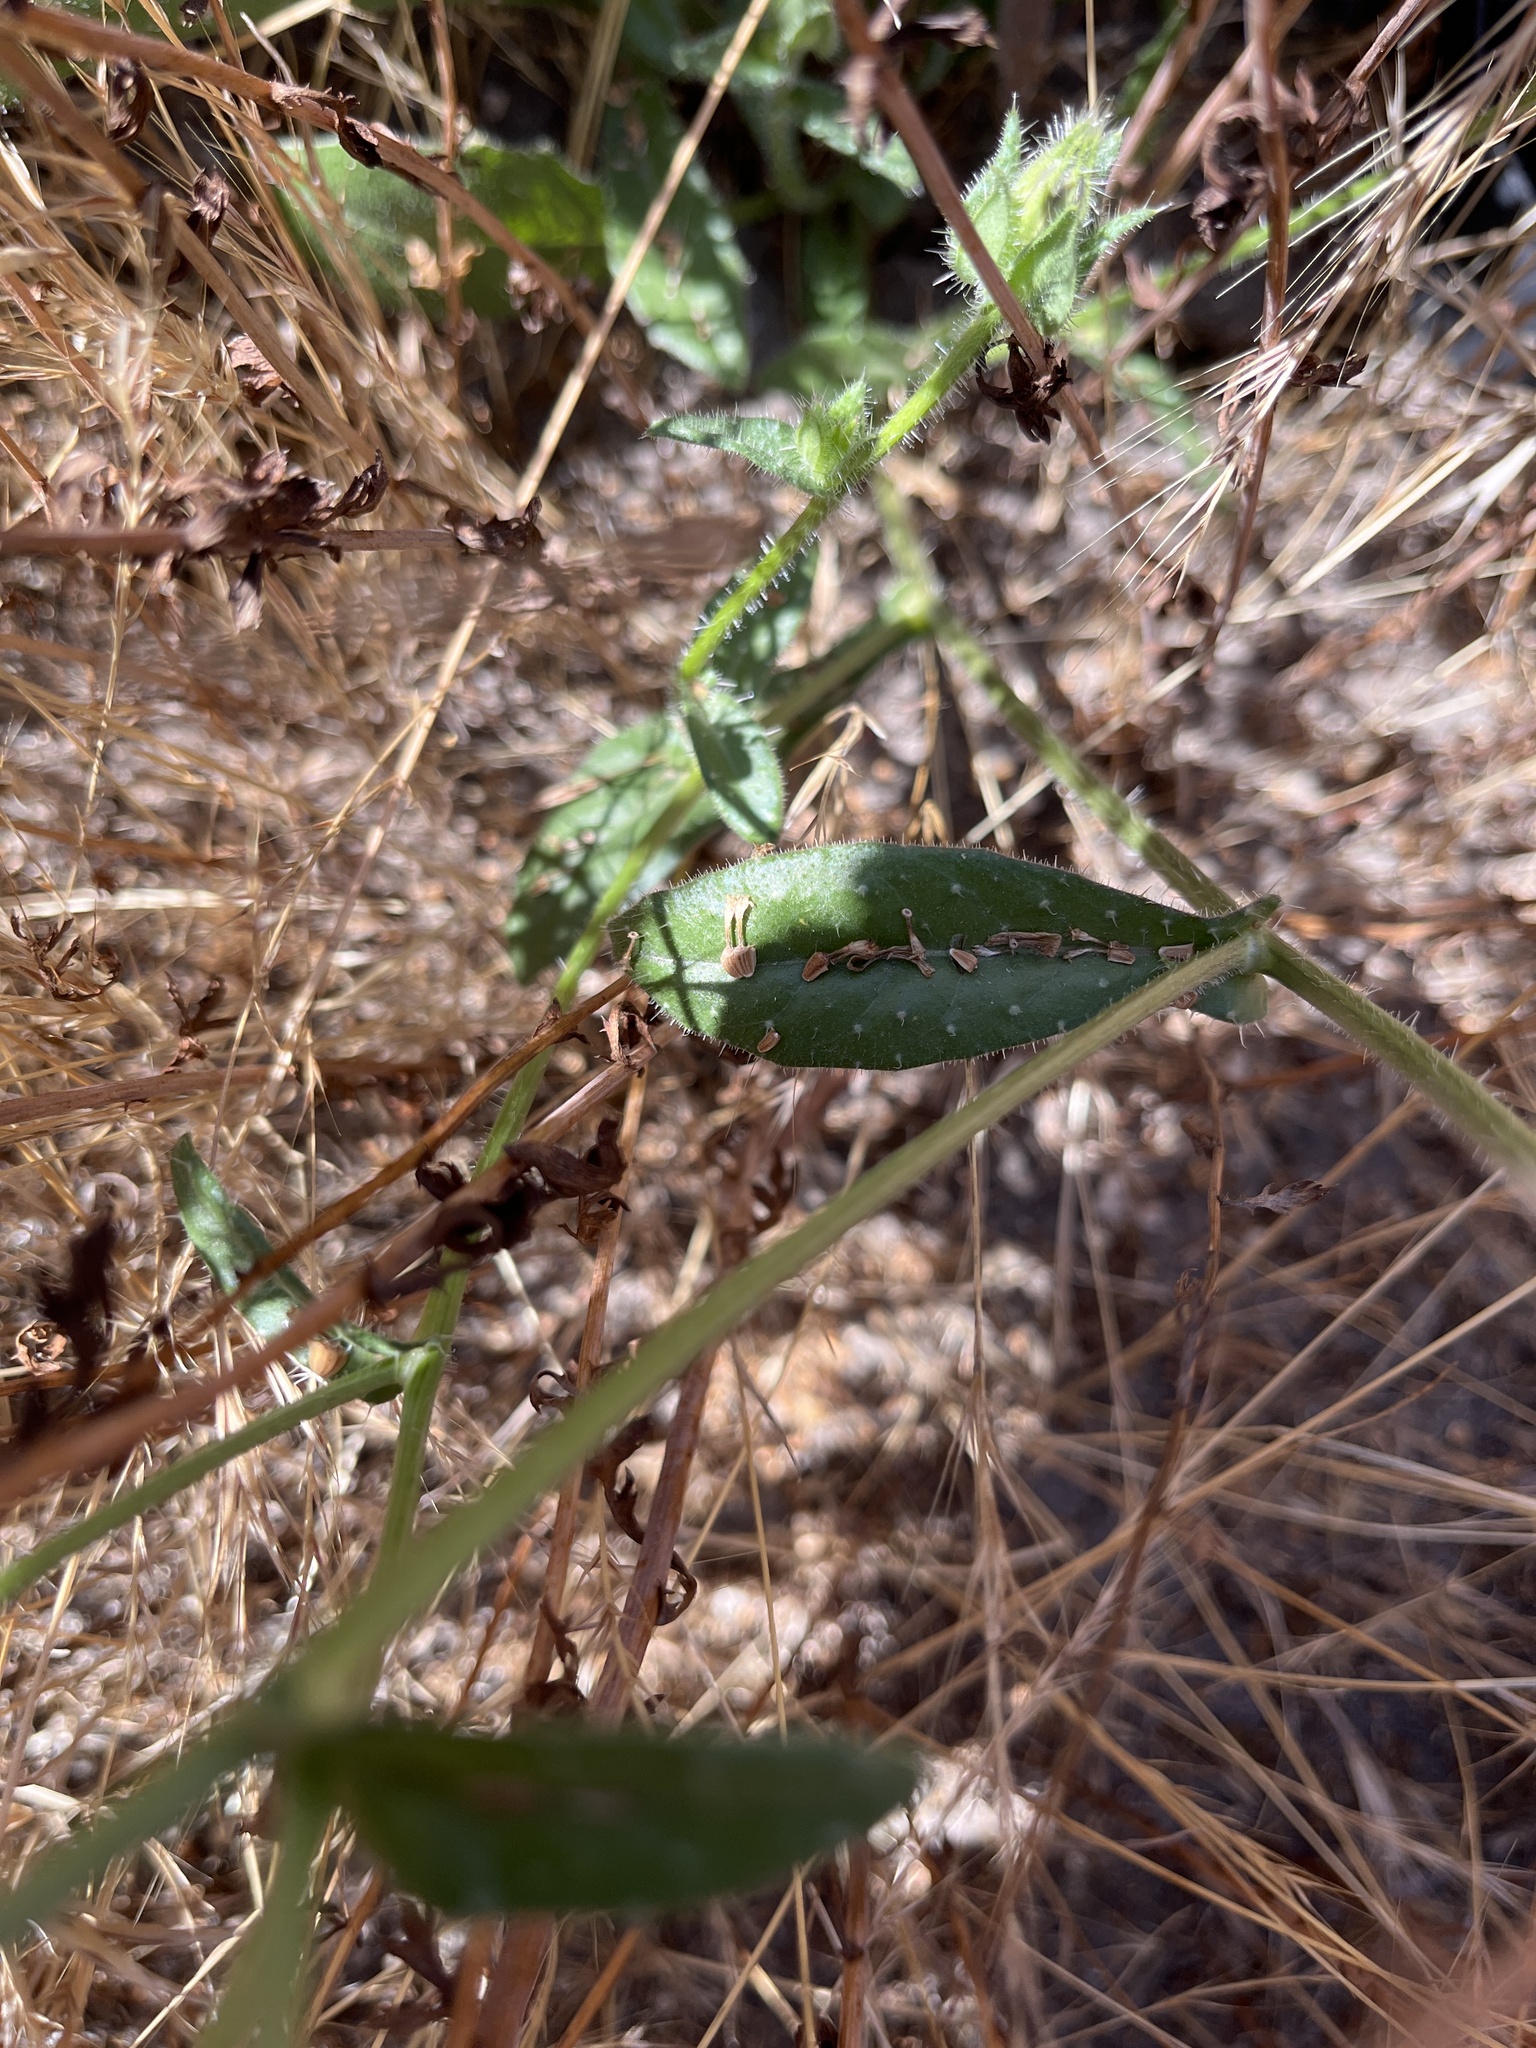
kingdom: Plantae
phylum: Tracheophyta
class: Magnoliopsida
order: Asterales
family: Asteraceae
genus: Helminthotheca
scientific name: Helminthotheca echioides
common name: Ox-tongue
